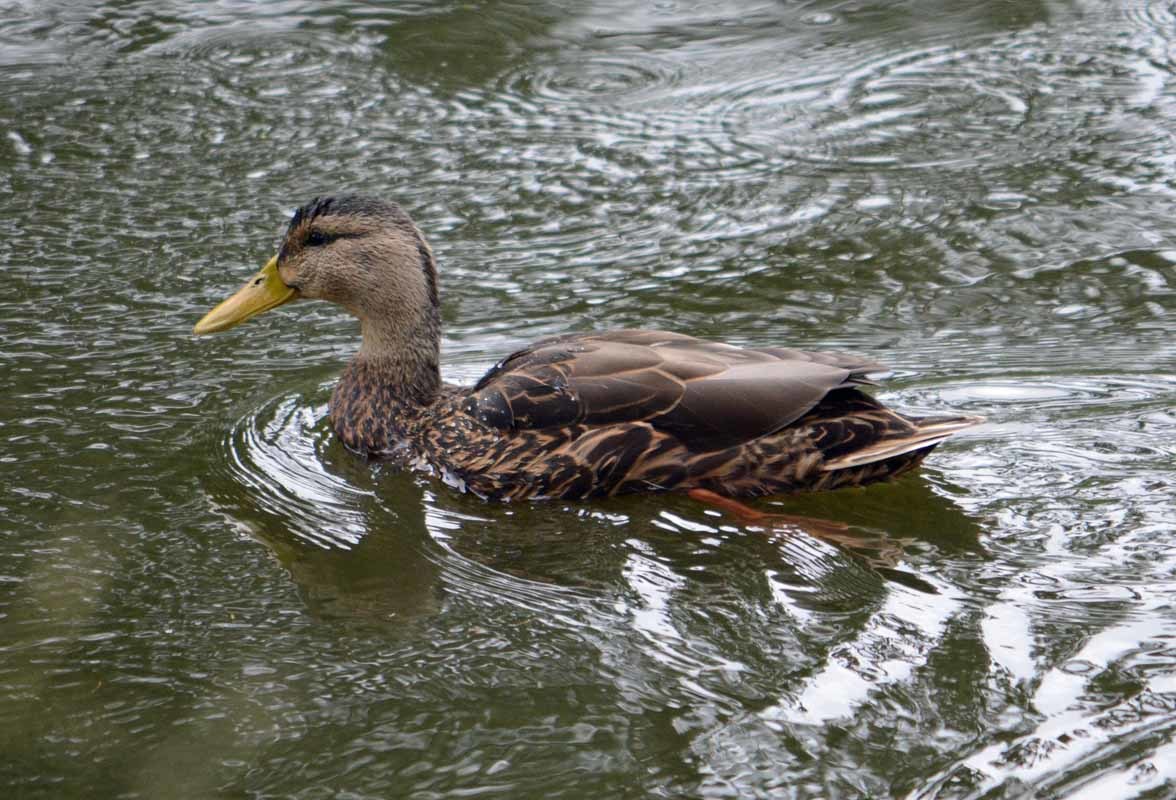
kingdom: Animalia
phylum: Chordata
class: Aves
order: Anseriformes
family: Anatidae
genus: Anas
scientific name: Anas diazi
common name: Mexican duck
